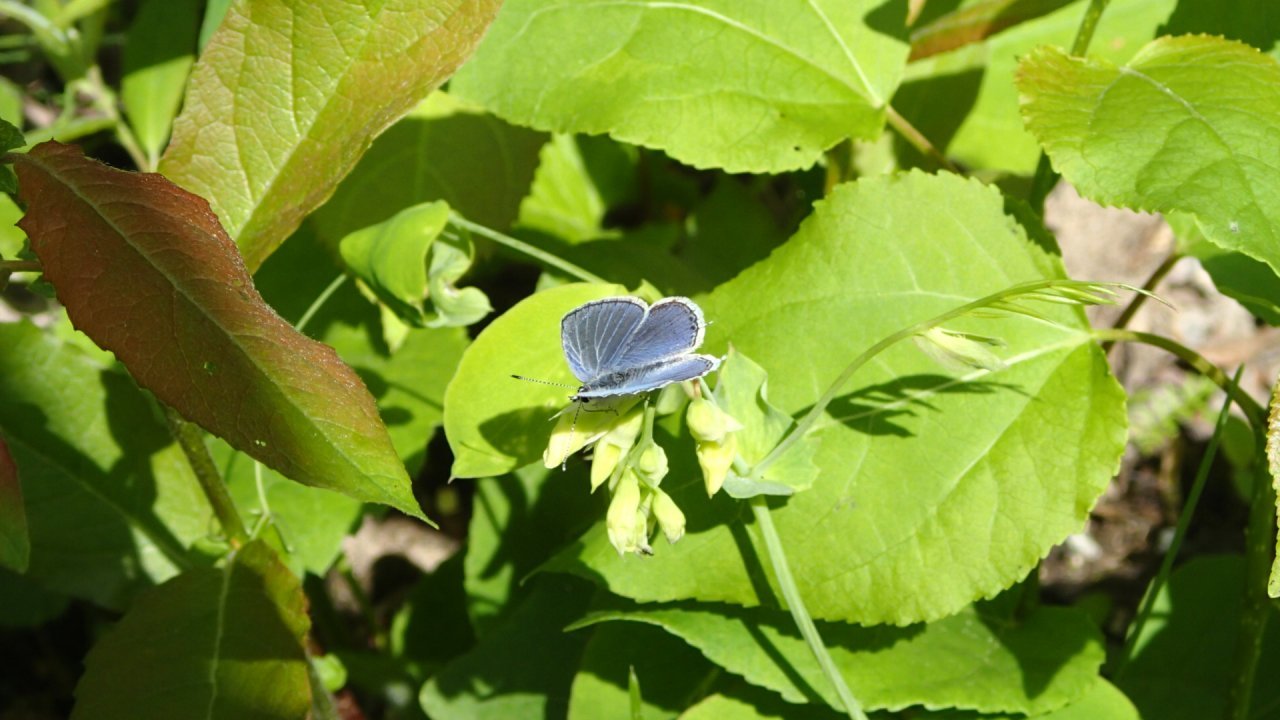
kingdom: Animalia
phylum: Arthropoda
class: Insecta
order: Lepidoptera
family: Lycaenidae
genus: Elkalyce
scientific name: Elkalyce amyntula
